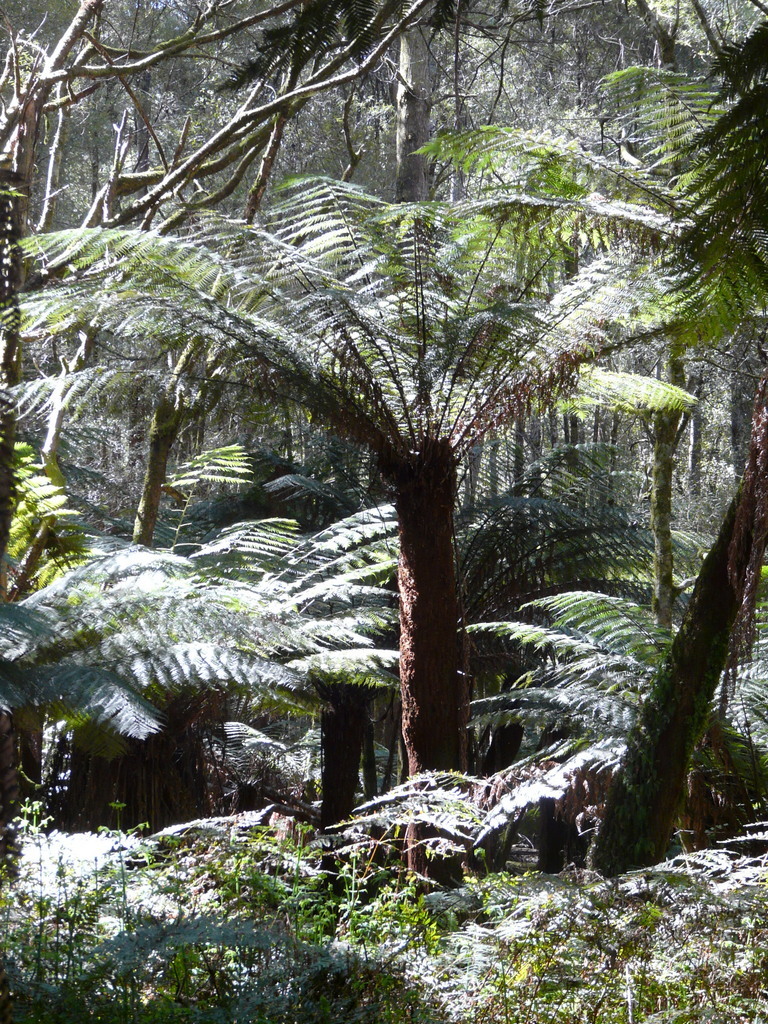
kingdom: Plantae
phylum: Tracheophyta
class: Polypodiopsida
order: Cyatheales
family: Dicksoniaceae
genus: Dicksonia
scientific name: Dicksonia antarctica
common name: Australian treefern
